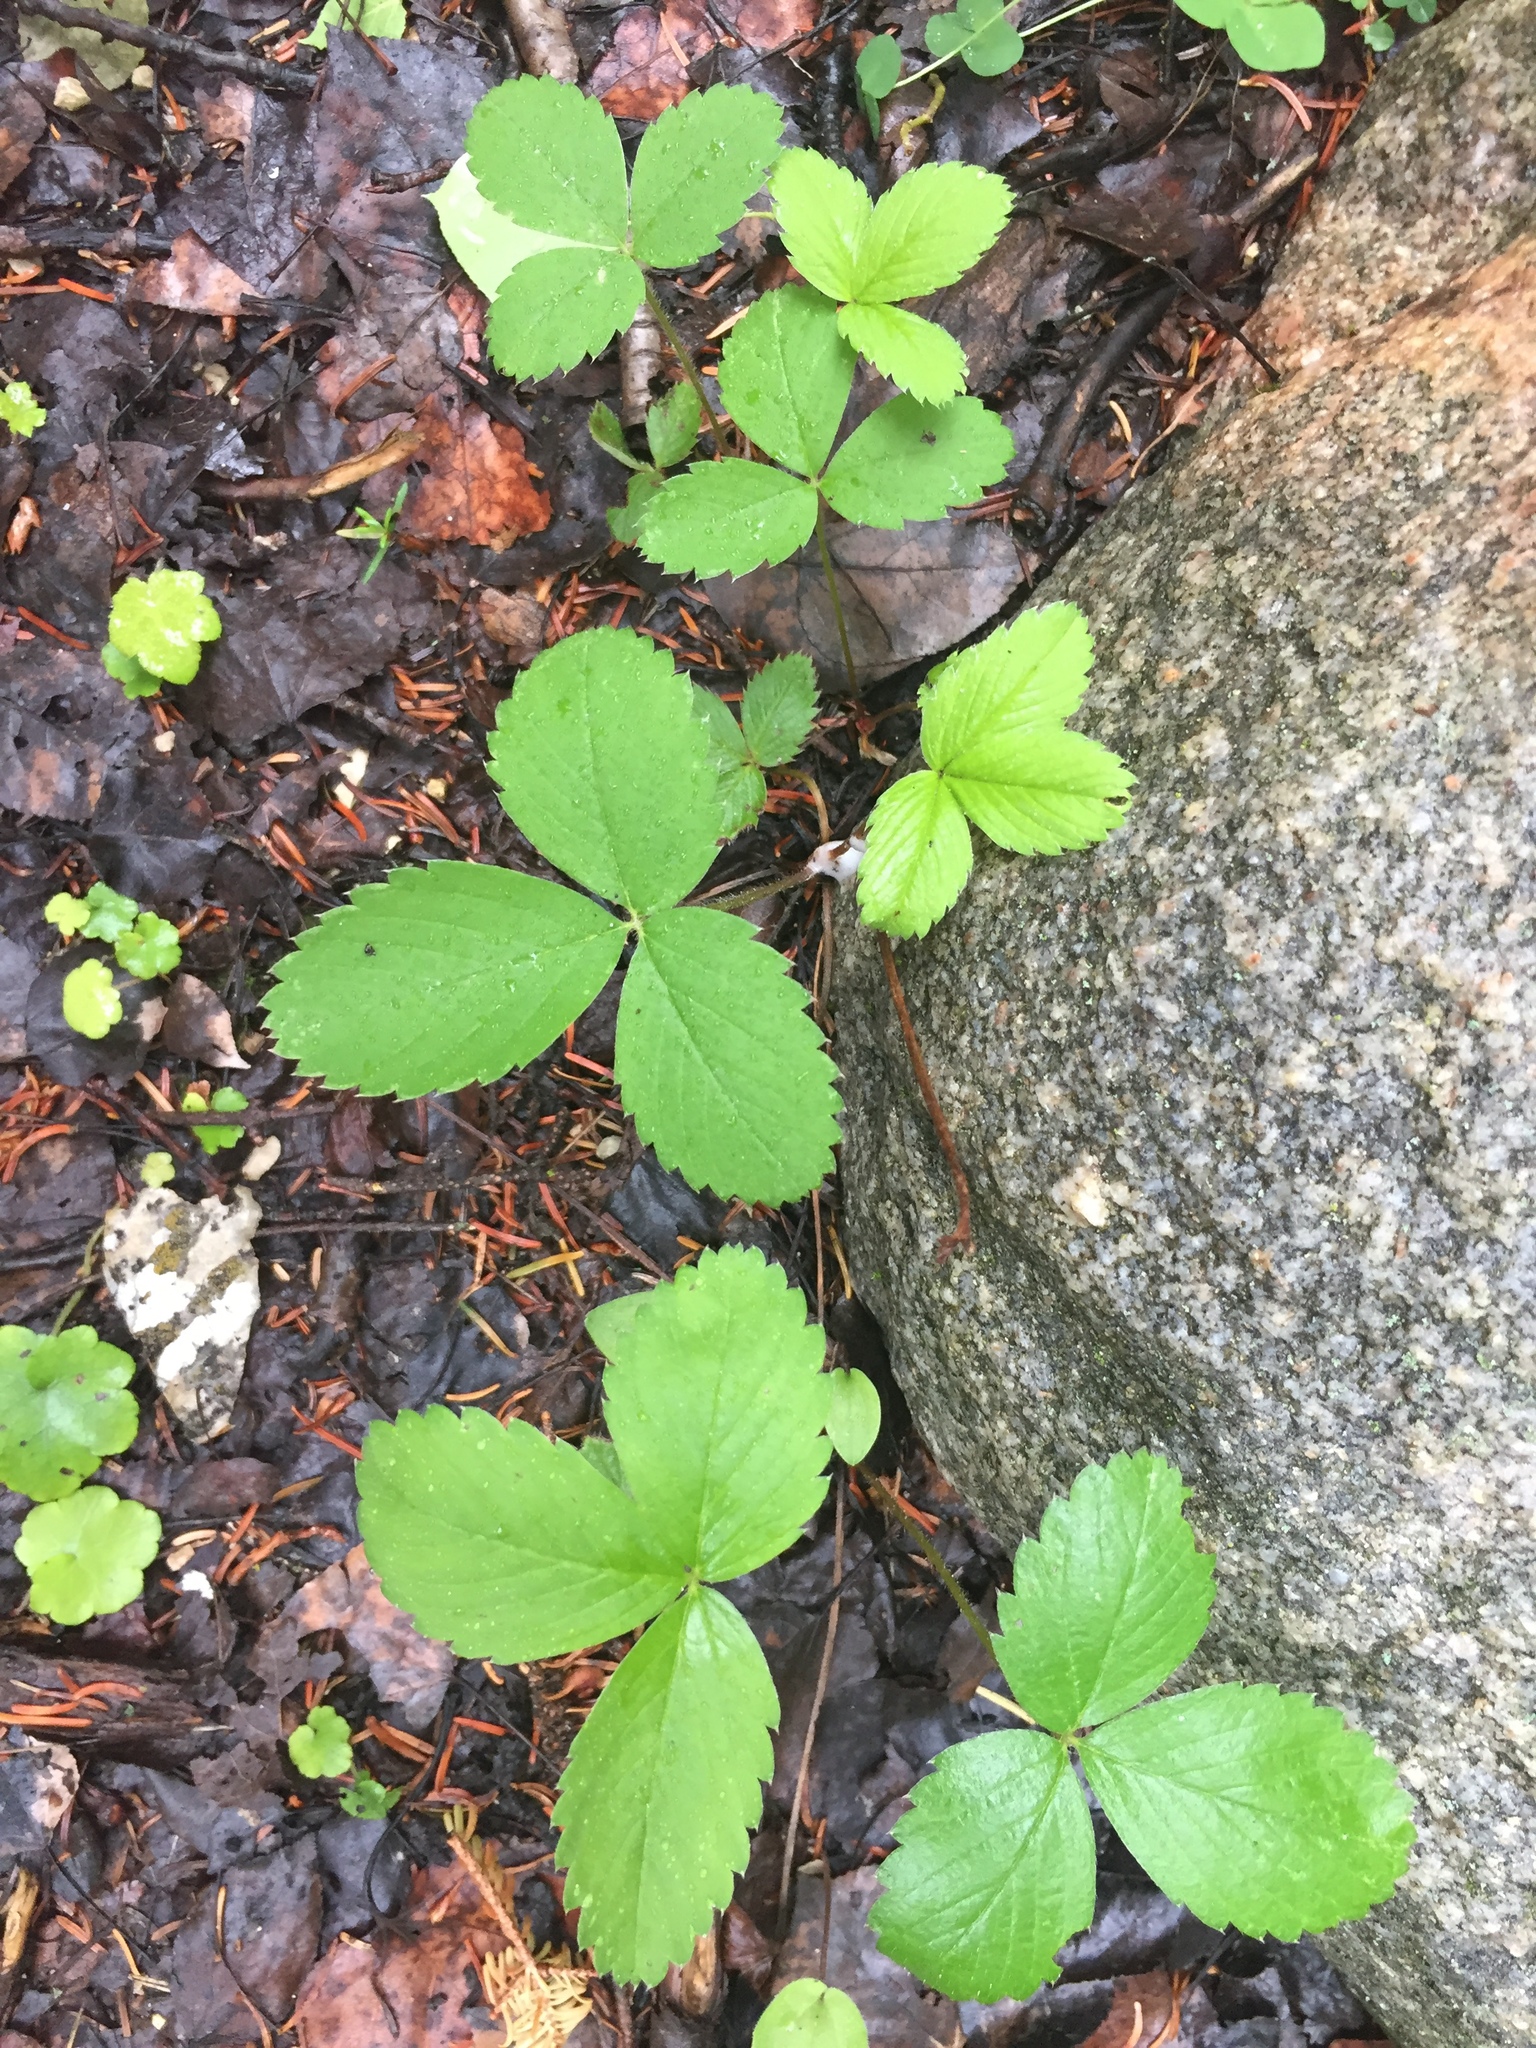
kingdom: Plantae
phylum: Tracheophyta
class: Magnoliopsida
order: Rosales
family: Rosaceae
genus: Fragaria
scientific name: Fragaria virginiana
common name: Thickleaved wild strawberry
